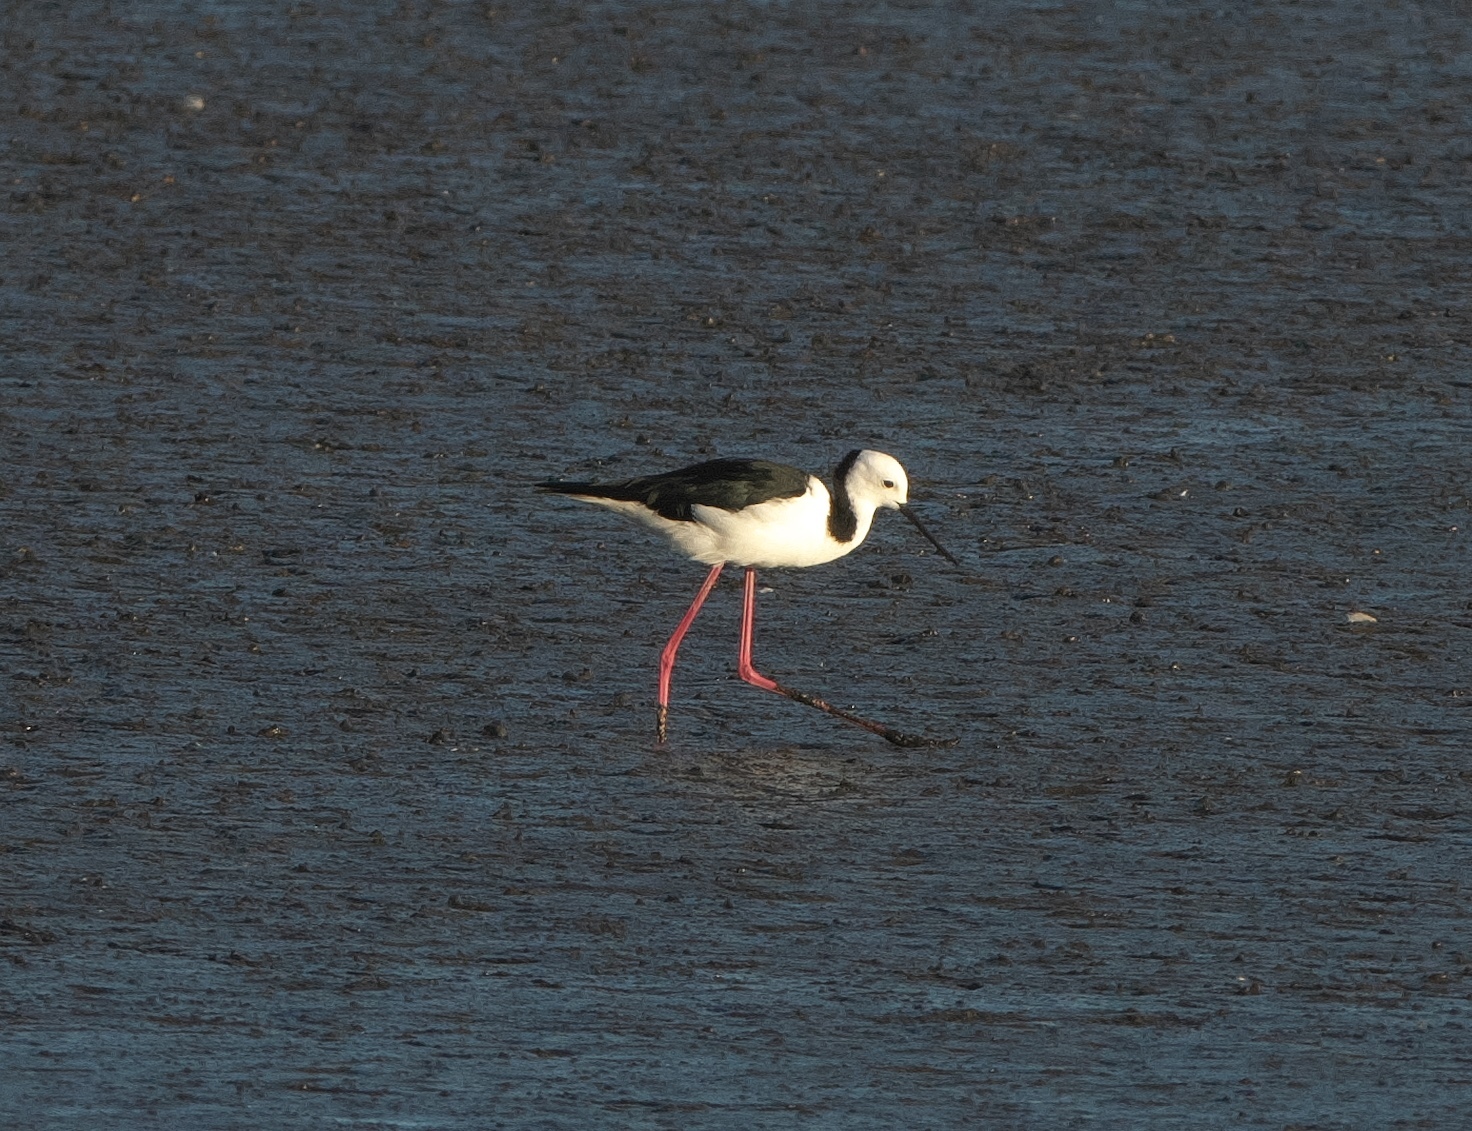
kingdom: Animalia
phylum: Chordata
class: Aves
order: Charadriiformes
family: Recurvirostridae
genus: Himantopus
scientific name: Himantopus leucocephalus
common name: White-headed stilt
